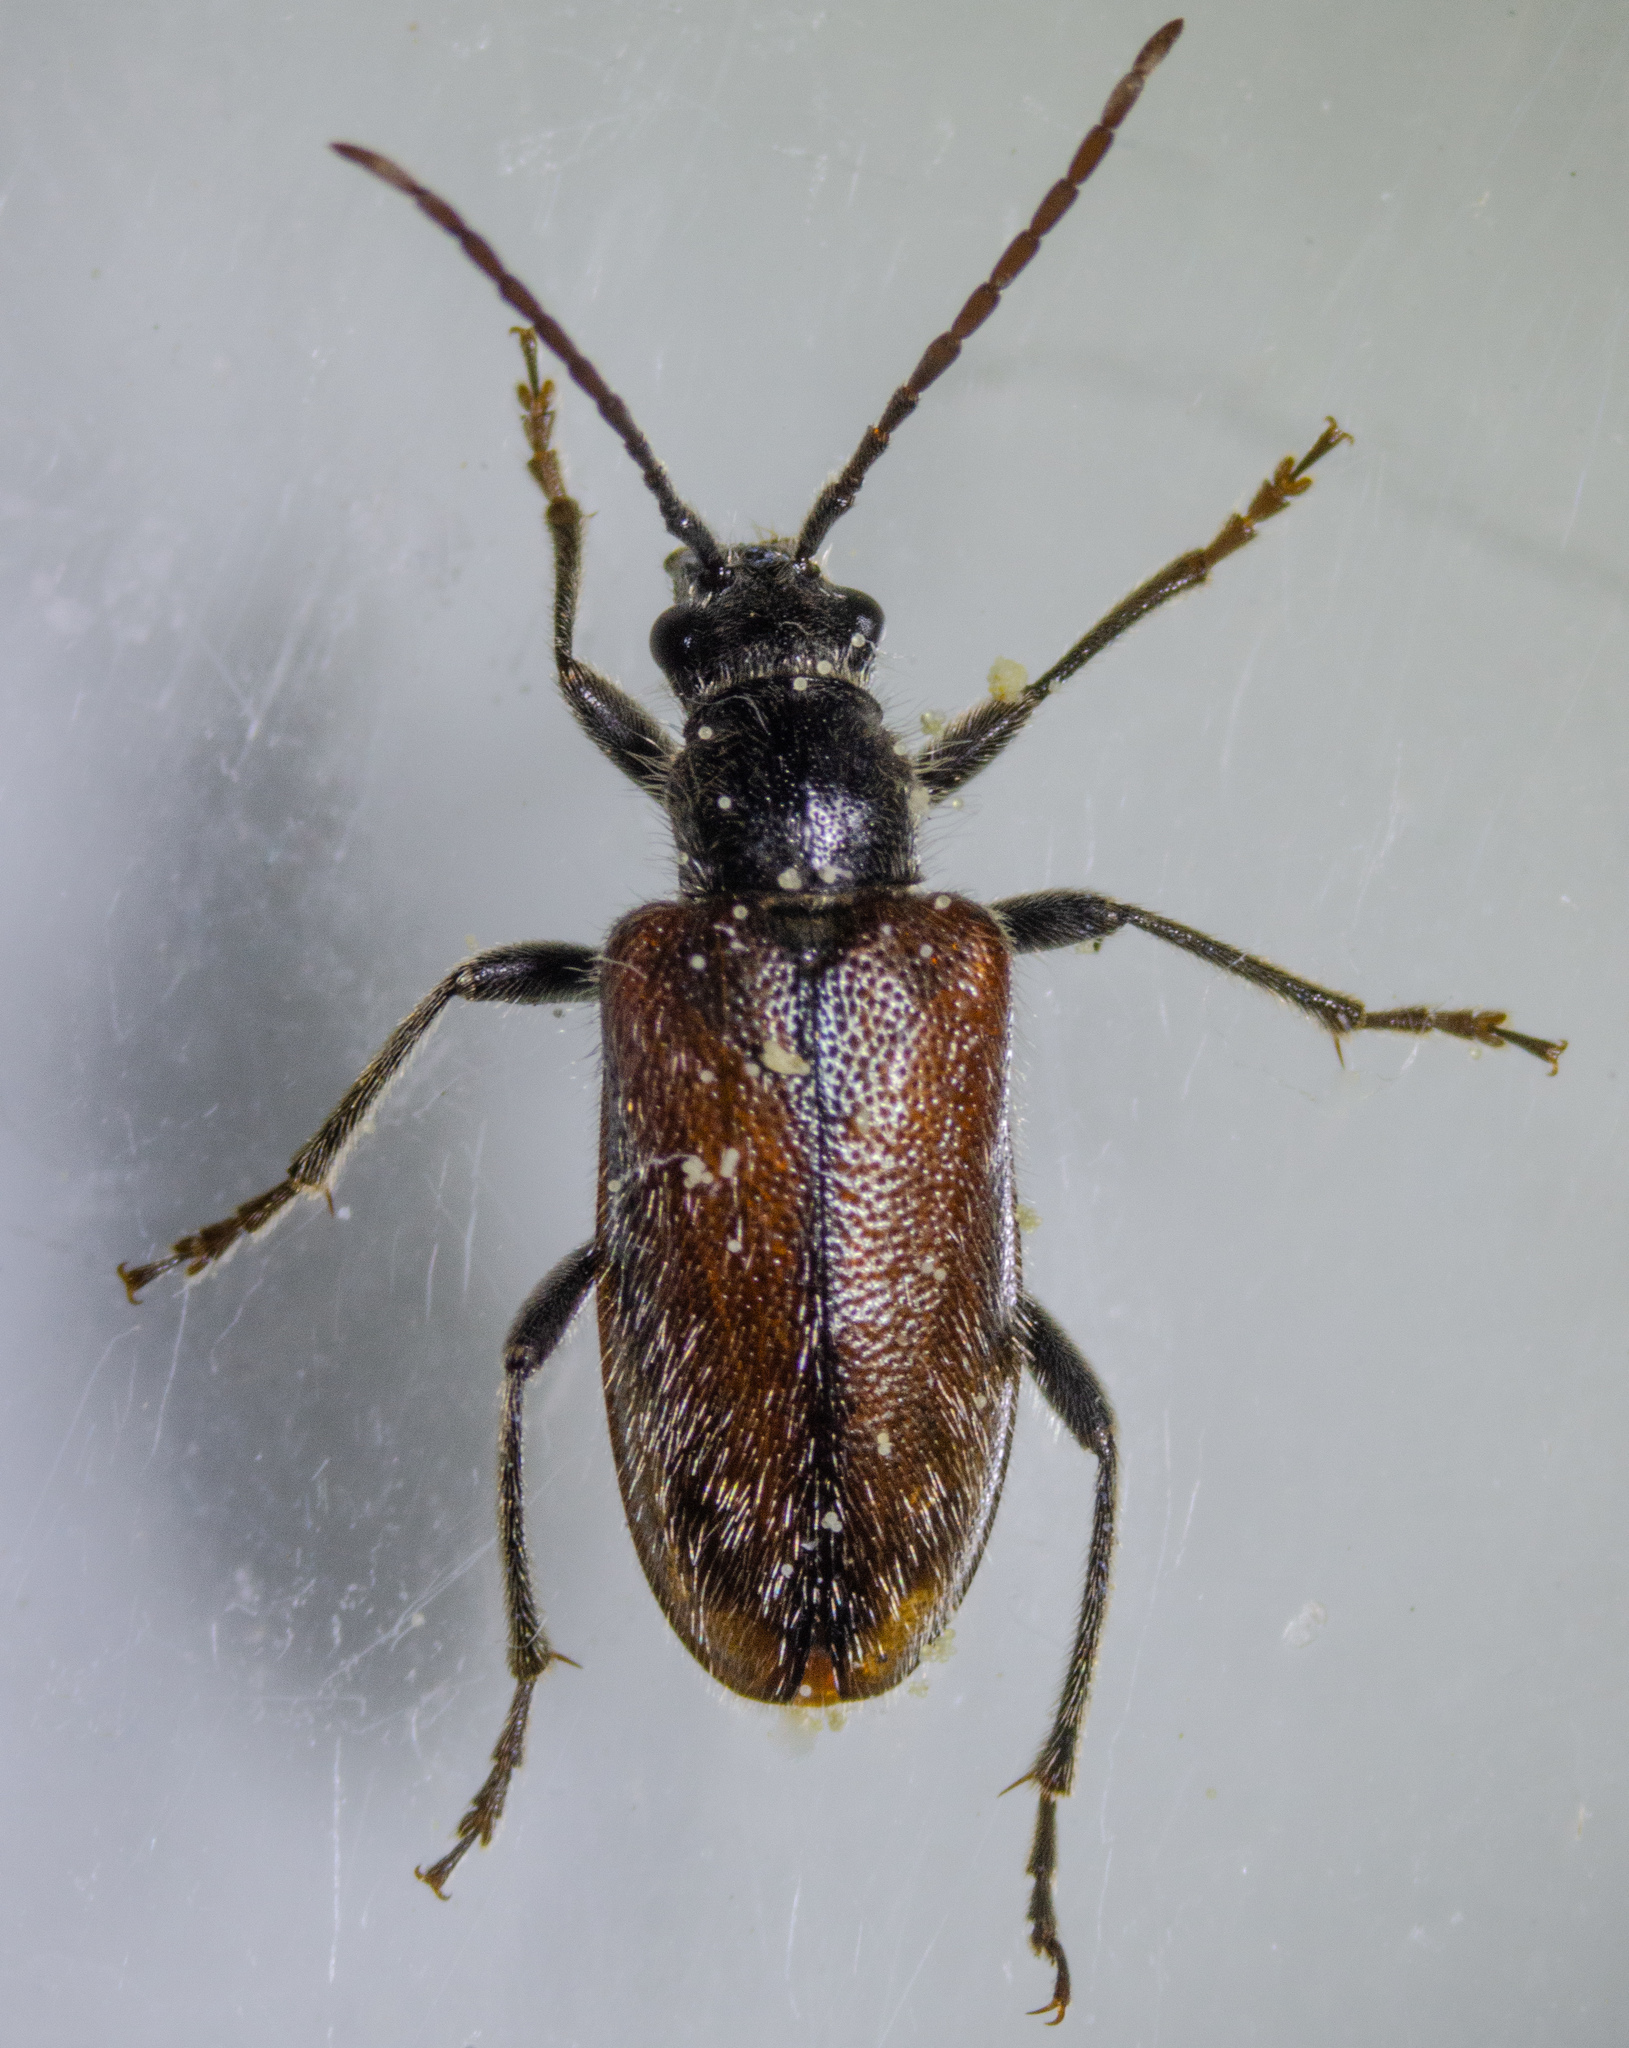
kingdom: Animalia
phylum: Arthropoda
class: Insecta
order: Coleoptera
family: Cerambycidae
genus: Brachysomida
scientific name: Brachysomida californica
